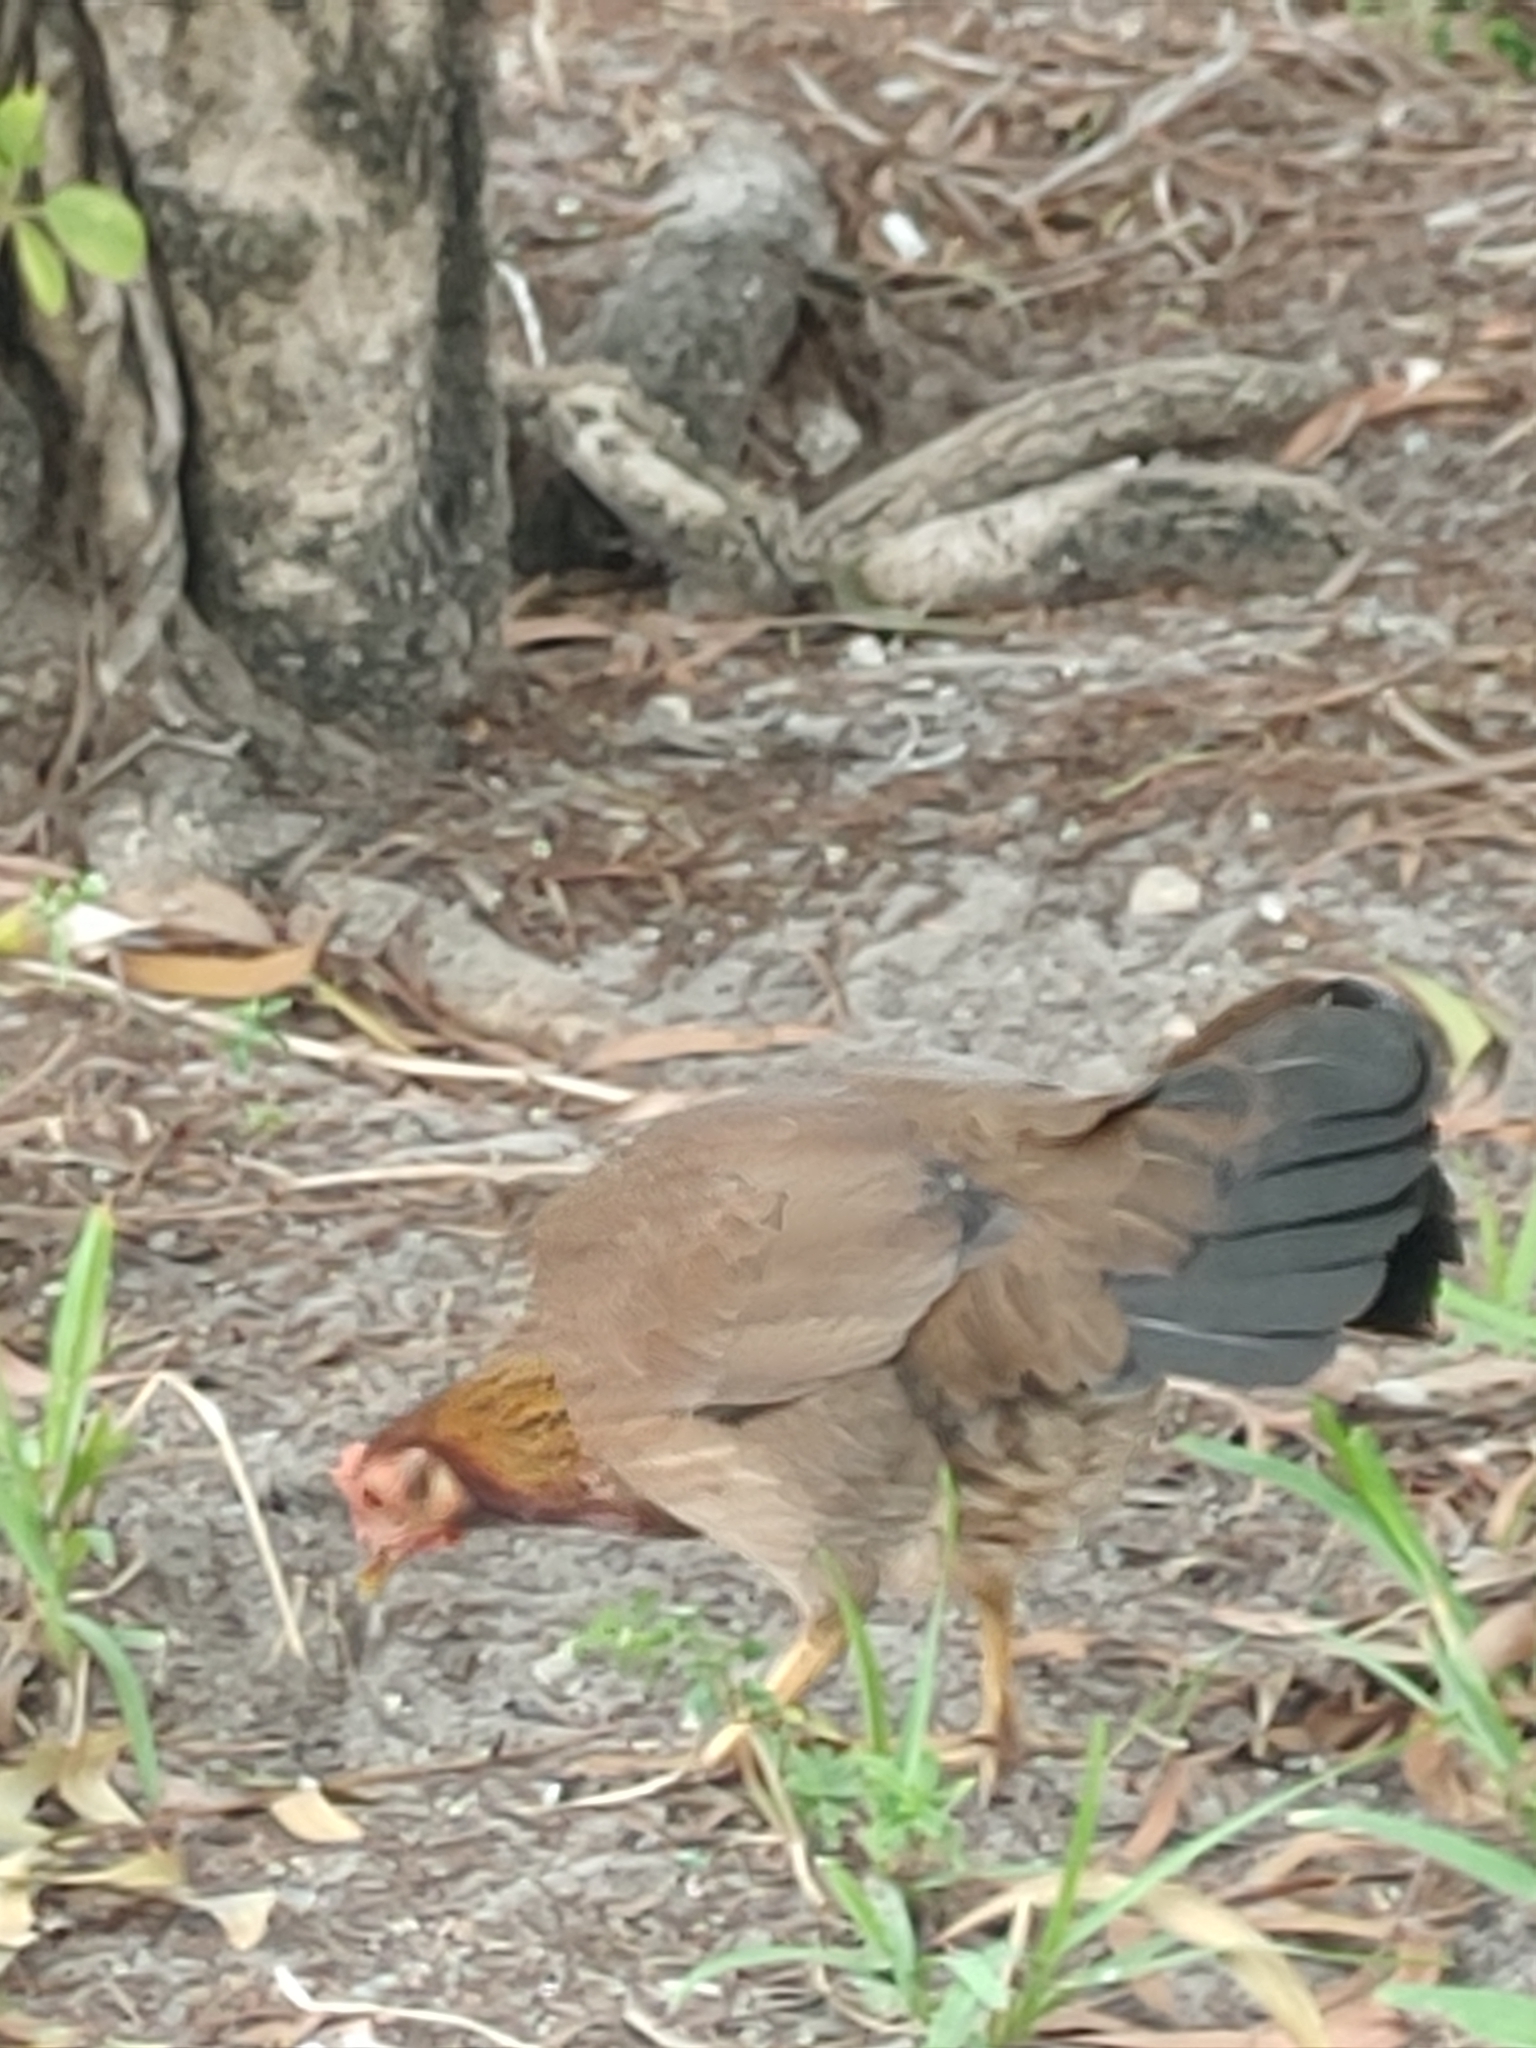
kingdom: Animalia
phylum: Chordata
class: Aves
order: Galliformes
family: Phasianidae
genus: Gallus
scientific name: Gallus gallus
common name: Red junglefowl
